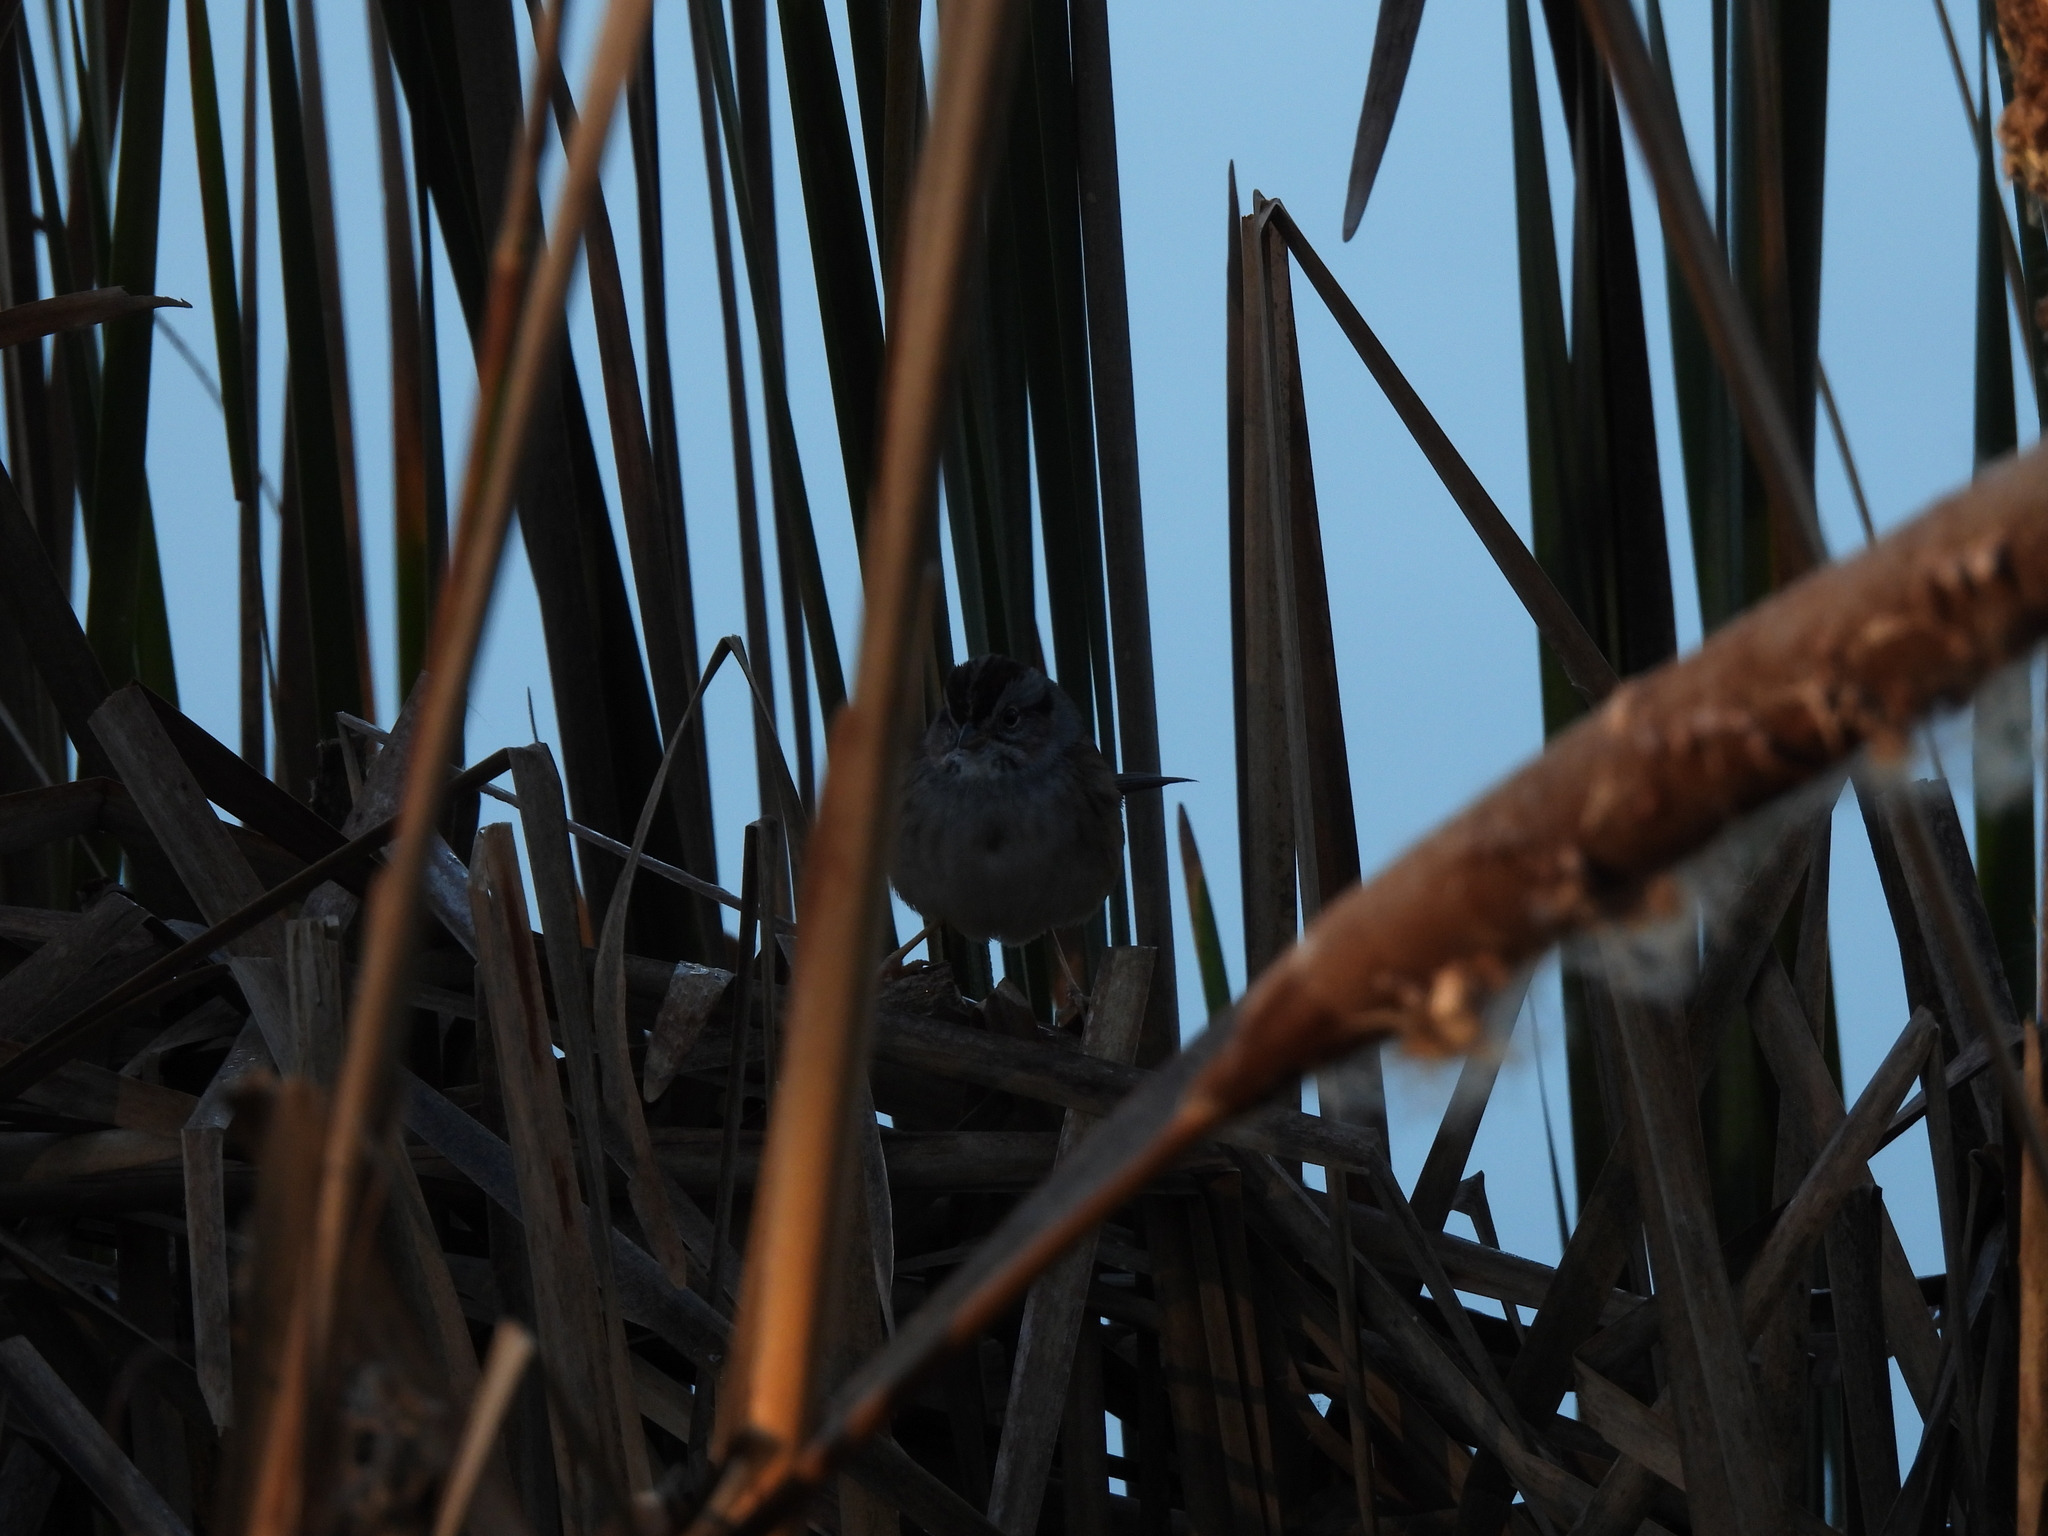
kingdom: Animalia
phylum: Chordata
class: Aves
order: Passeriformes
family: Passerellidae
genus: Melospiza
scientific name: Melospiza georgiana
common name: Swamp sparrow
